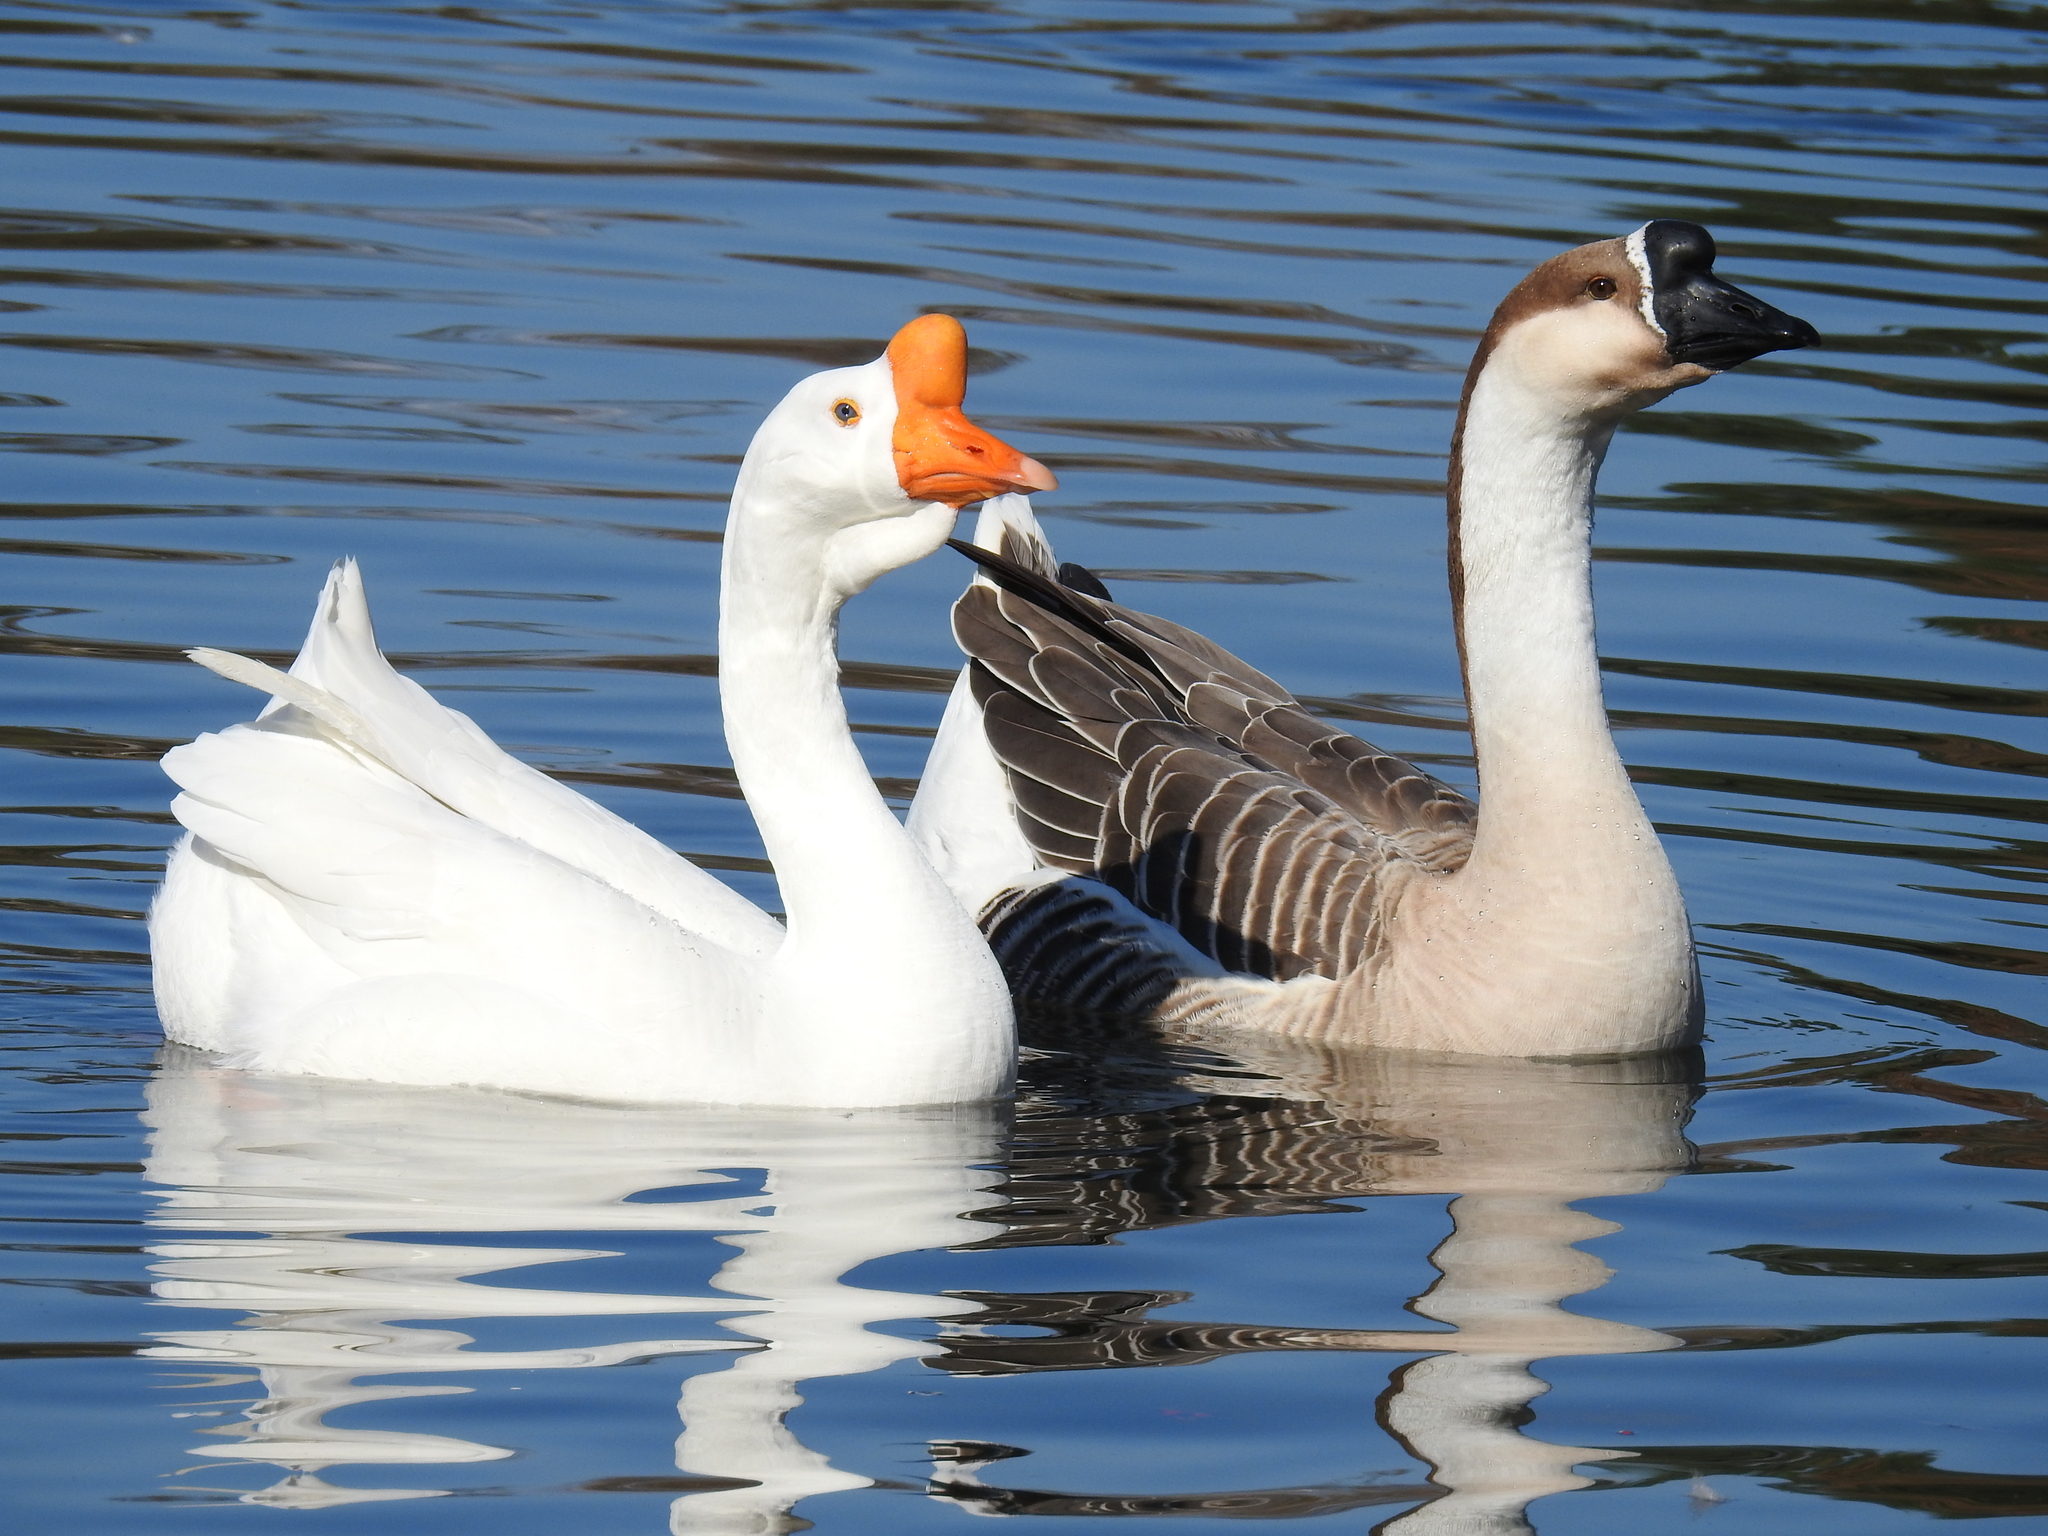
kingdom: Animalia
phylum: Chordata
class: Aves
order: Anseriformes
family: Anatidae
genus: Anser
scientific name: Anser cygnoides
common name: Swan goose
